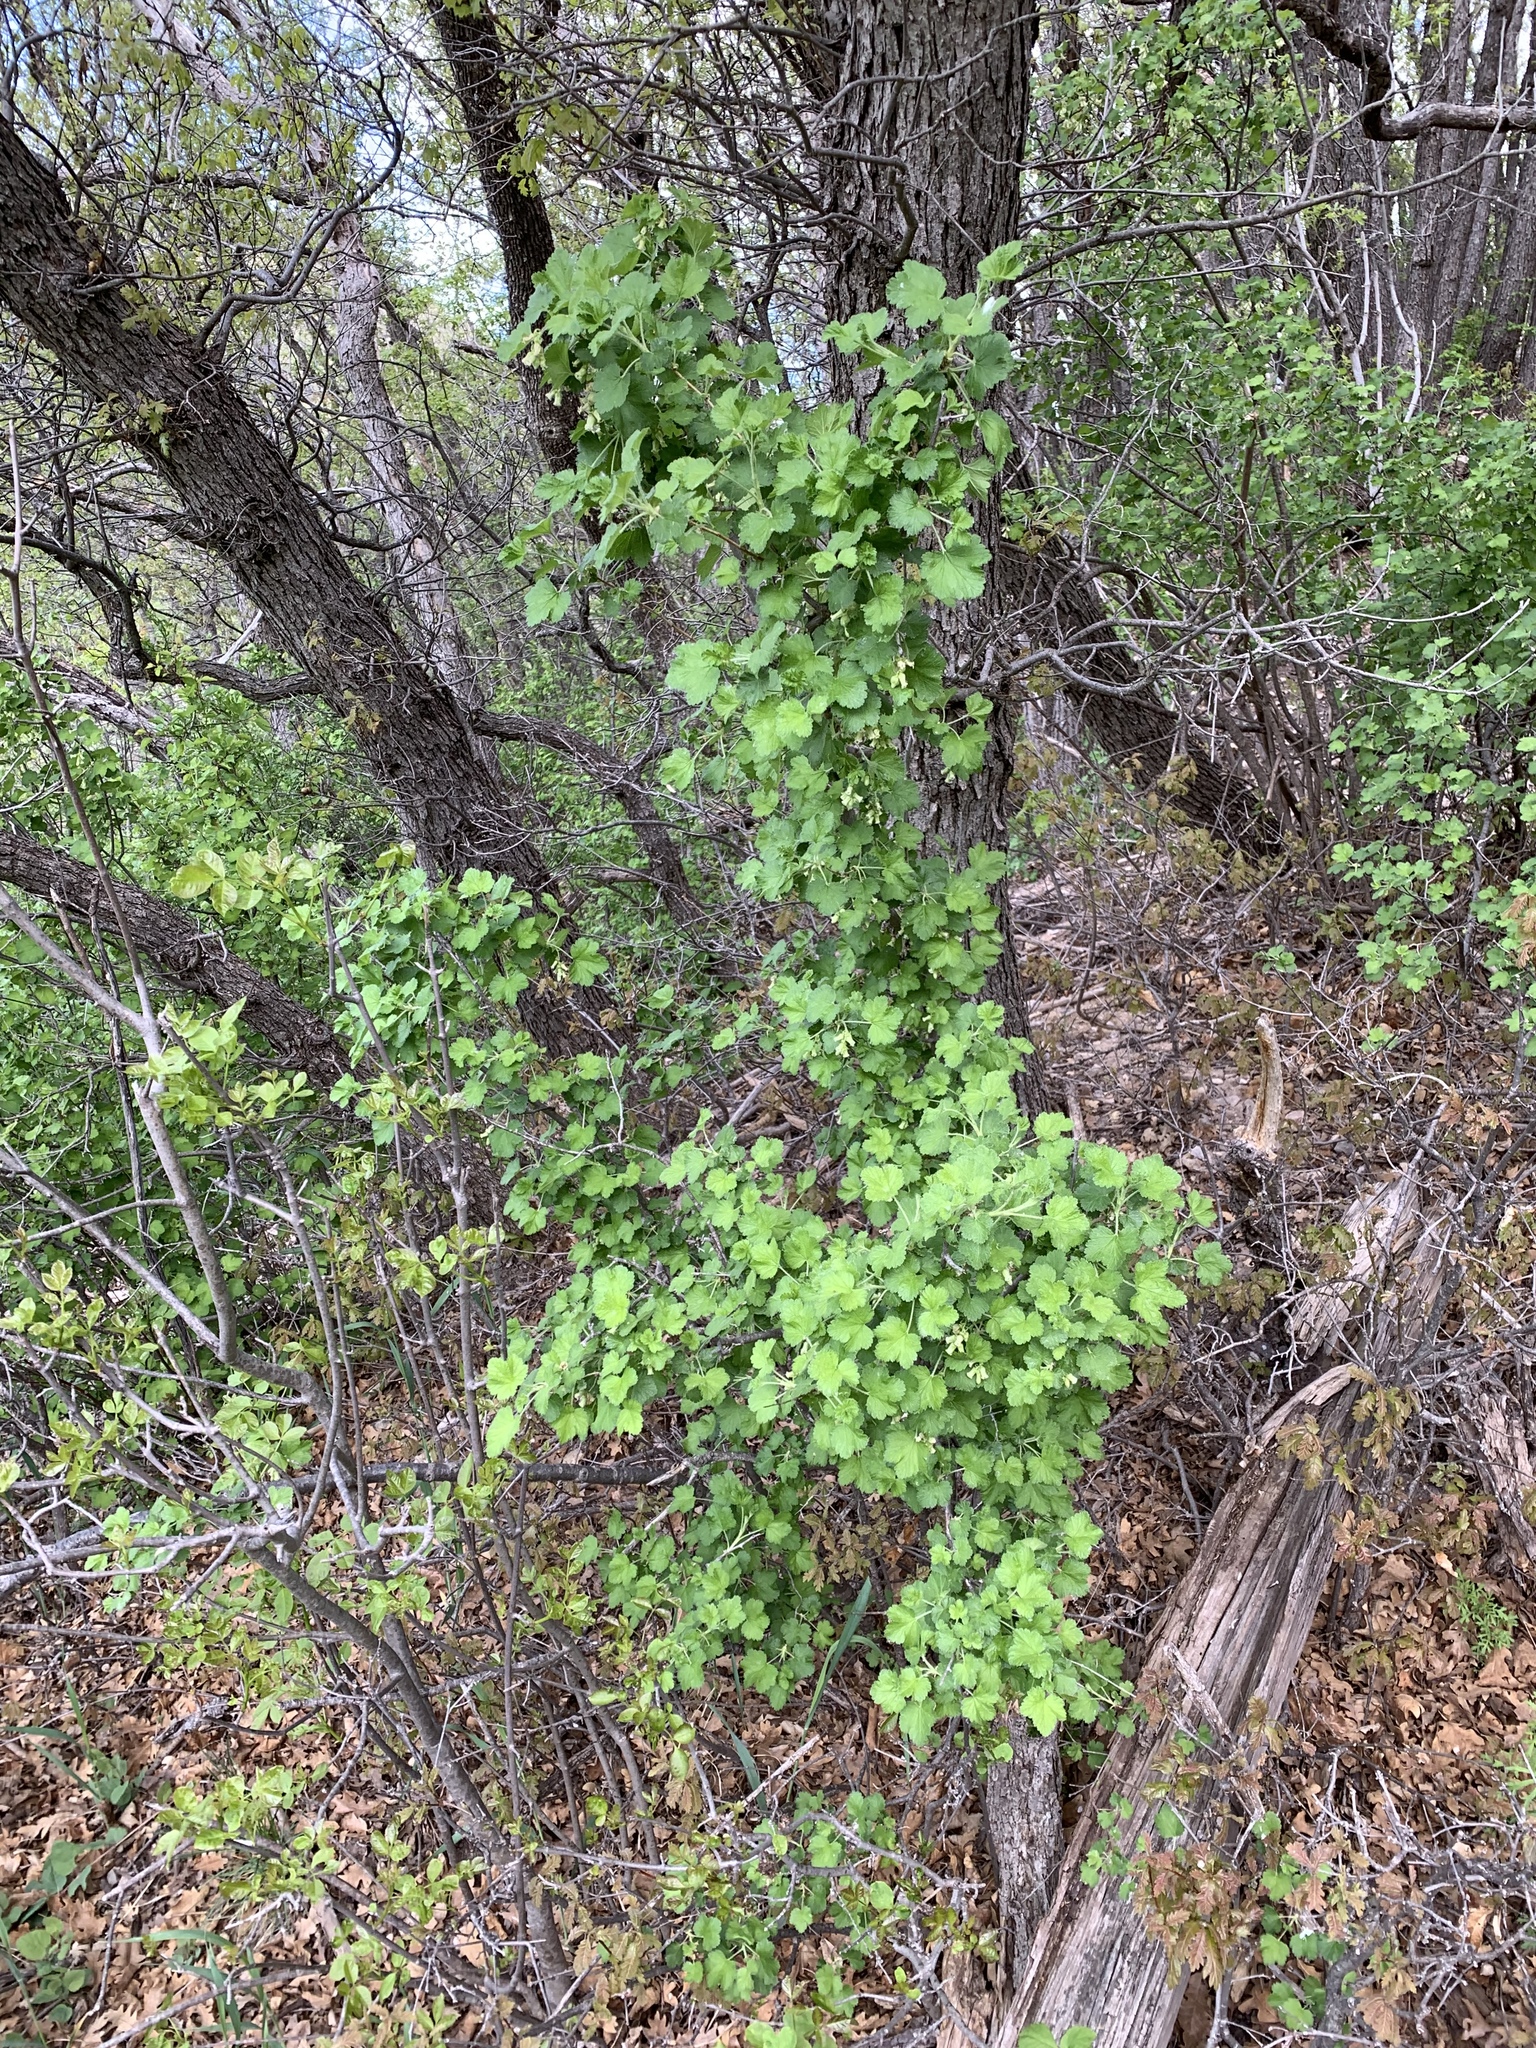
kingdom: Plantae
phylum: Tracheophyta
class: Magnoliopsida
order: Saxifragales
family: Grossulariaceae
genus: Ribes
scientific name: Ribes mescalerium
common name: Southwestern black currant
